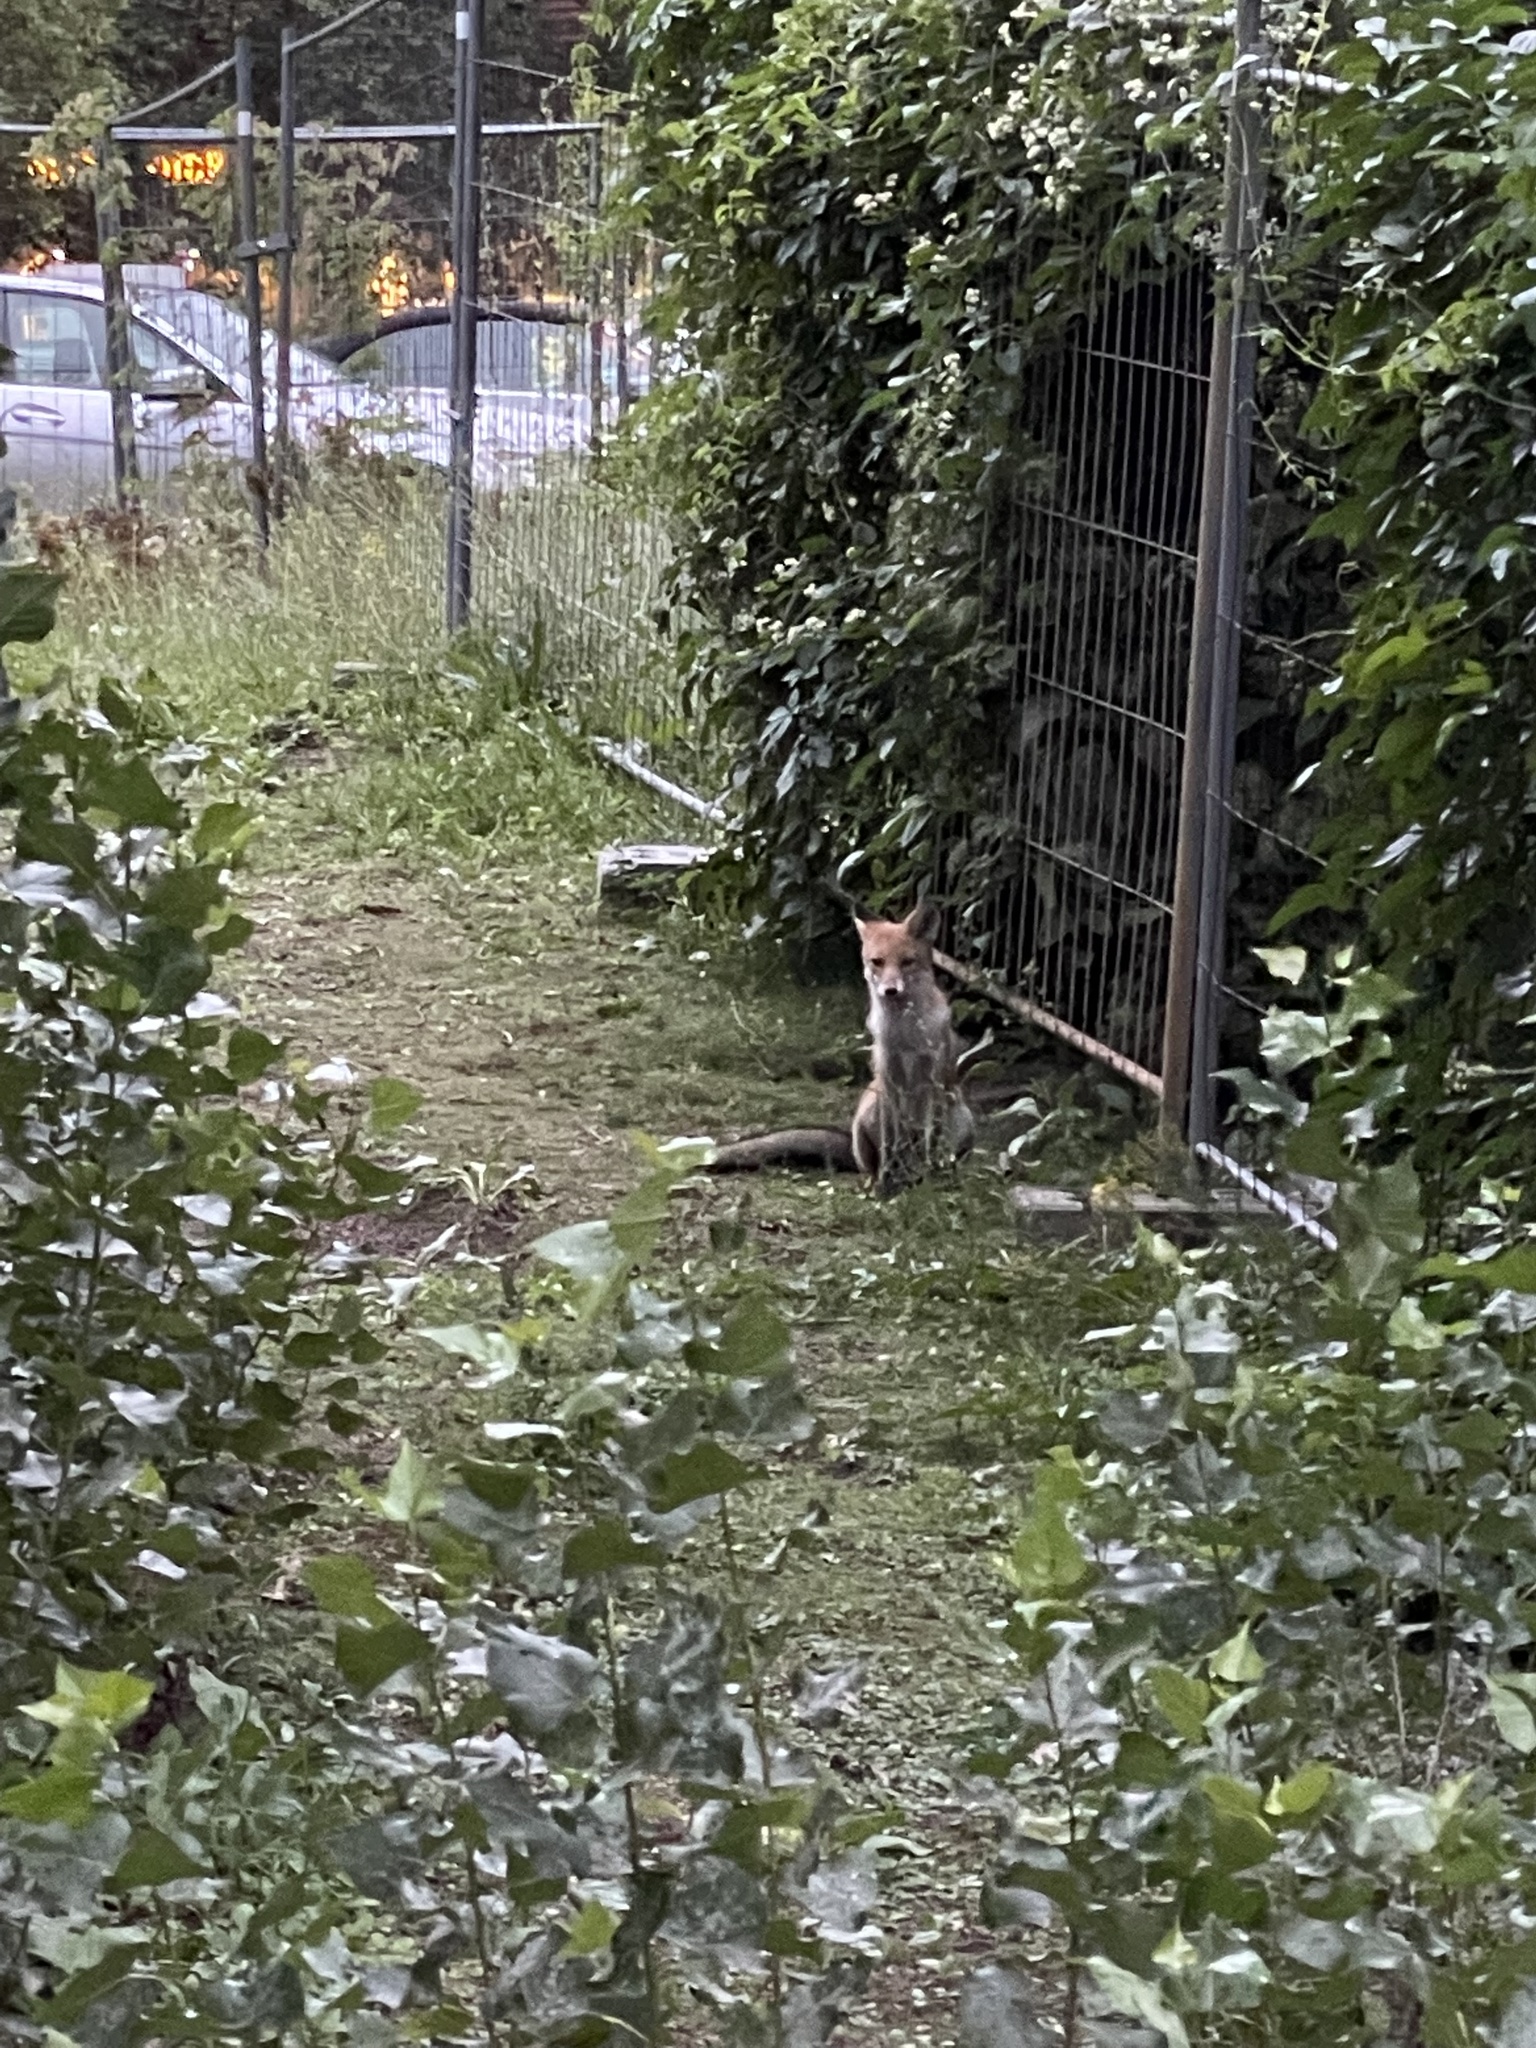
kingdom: Animalia
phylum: Chordata
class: Mammalia
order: Carnivora
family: Canidae
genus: Vulpes
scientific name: Vulpes vulpes
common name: Red fox
